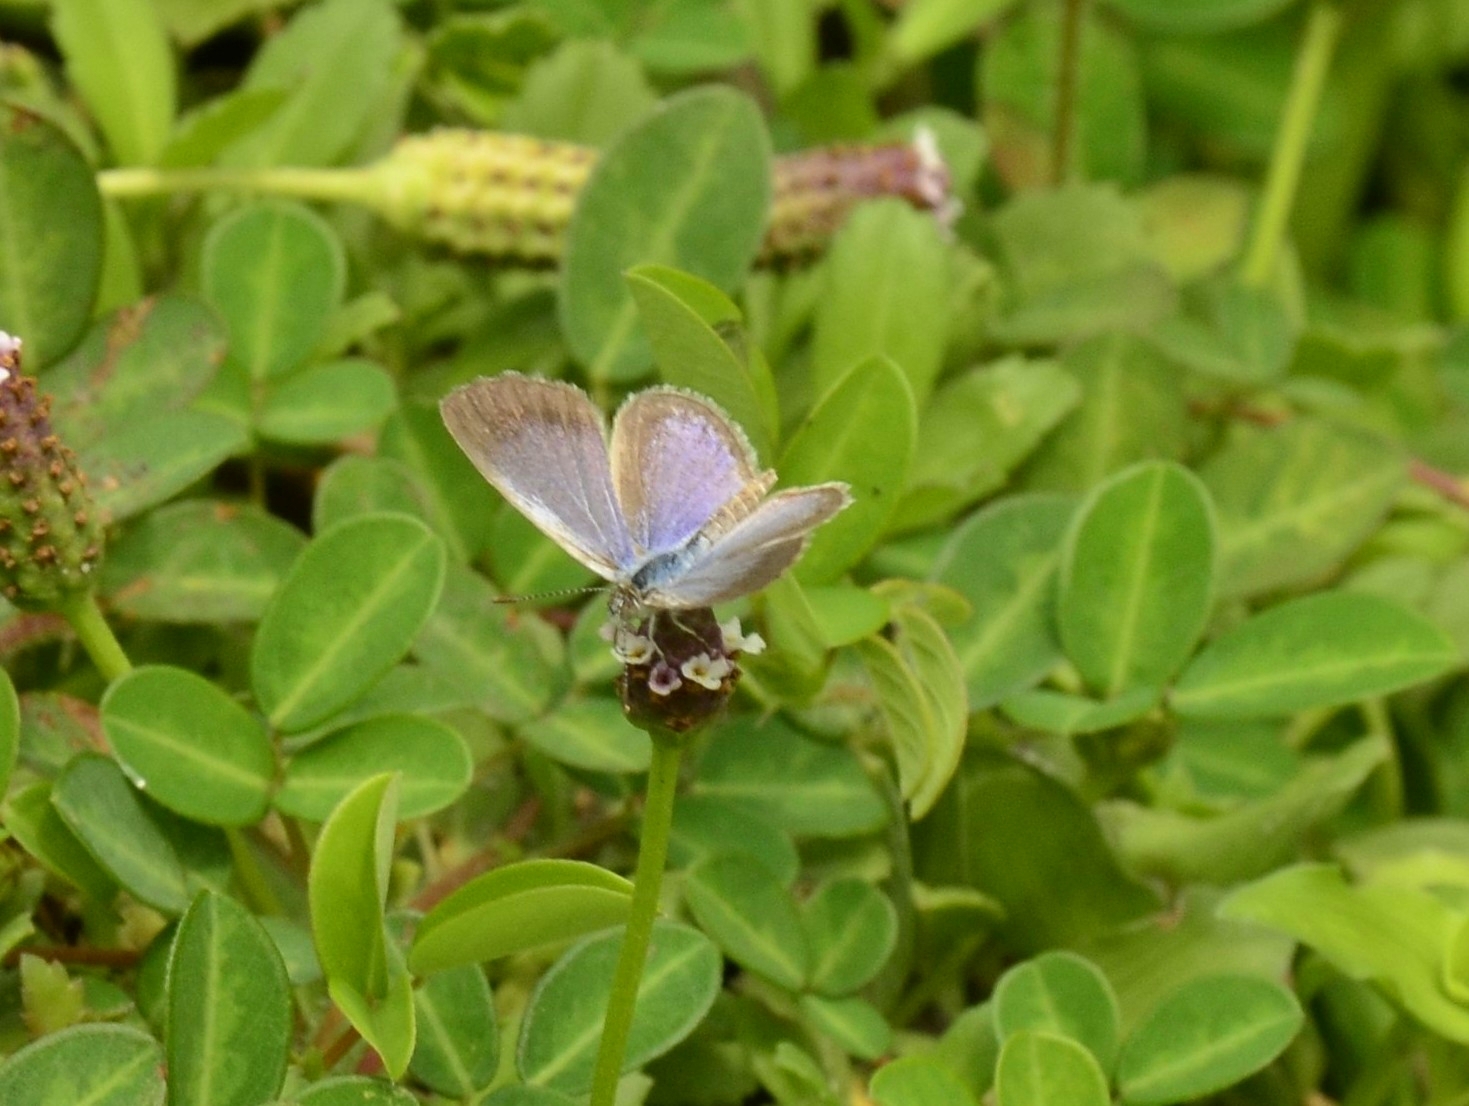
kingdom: Animalia
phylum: Arthropoda
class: Insecta
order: Lepidoptera
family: Lycaenidae
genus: Zizina
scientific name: Zizina otis
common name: Lesser grass blue
